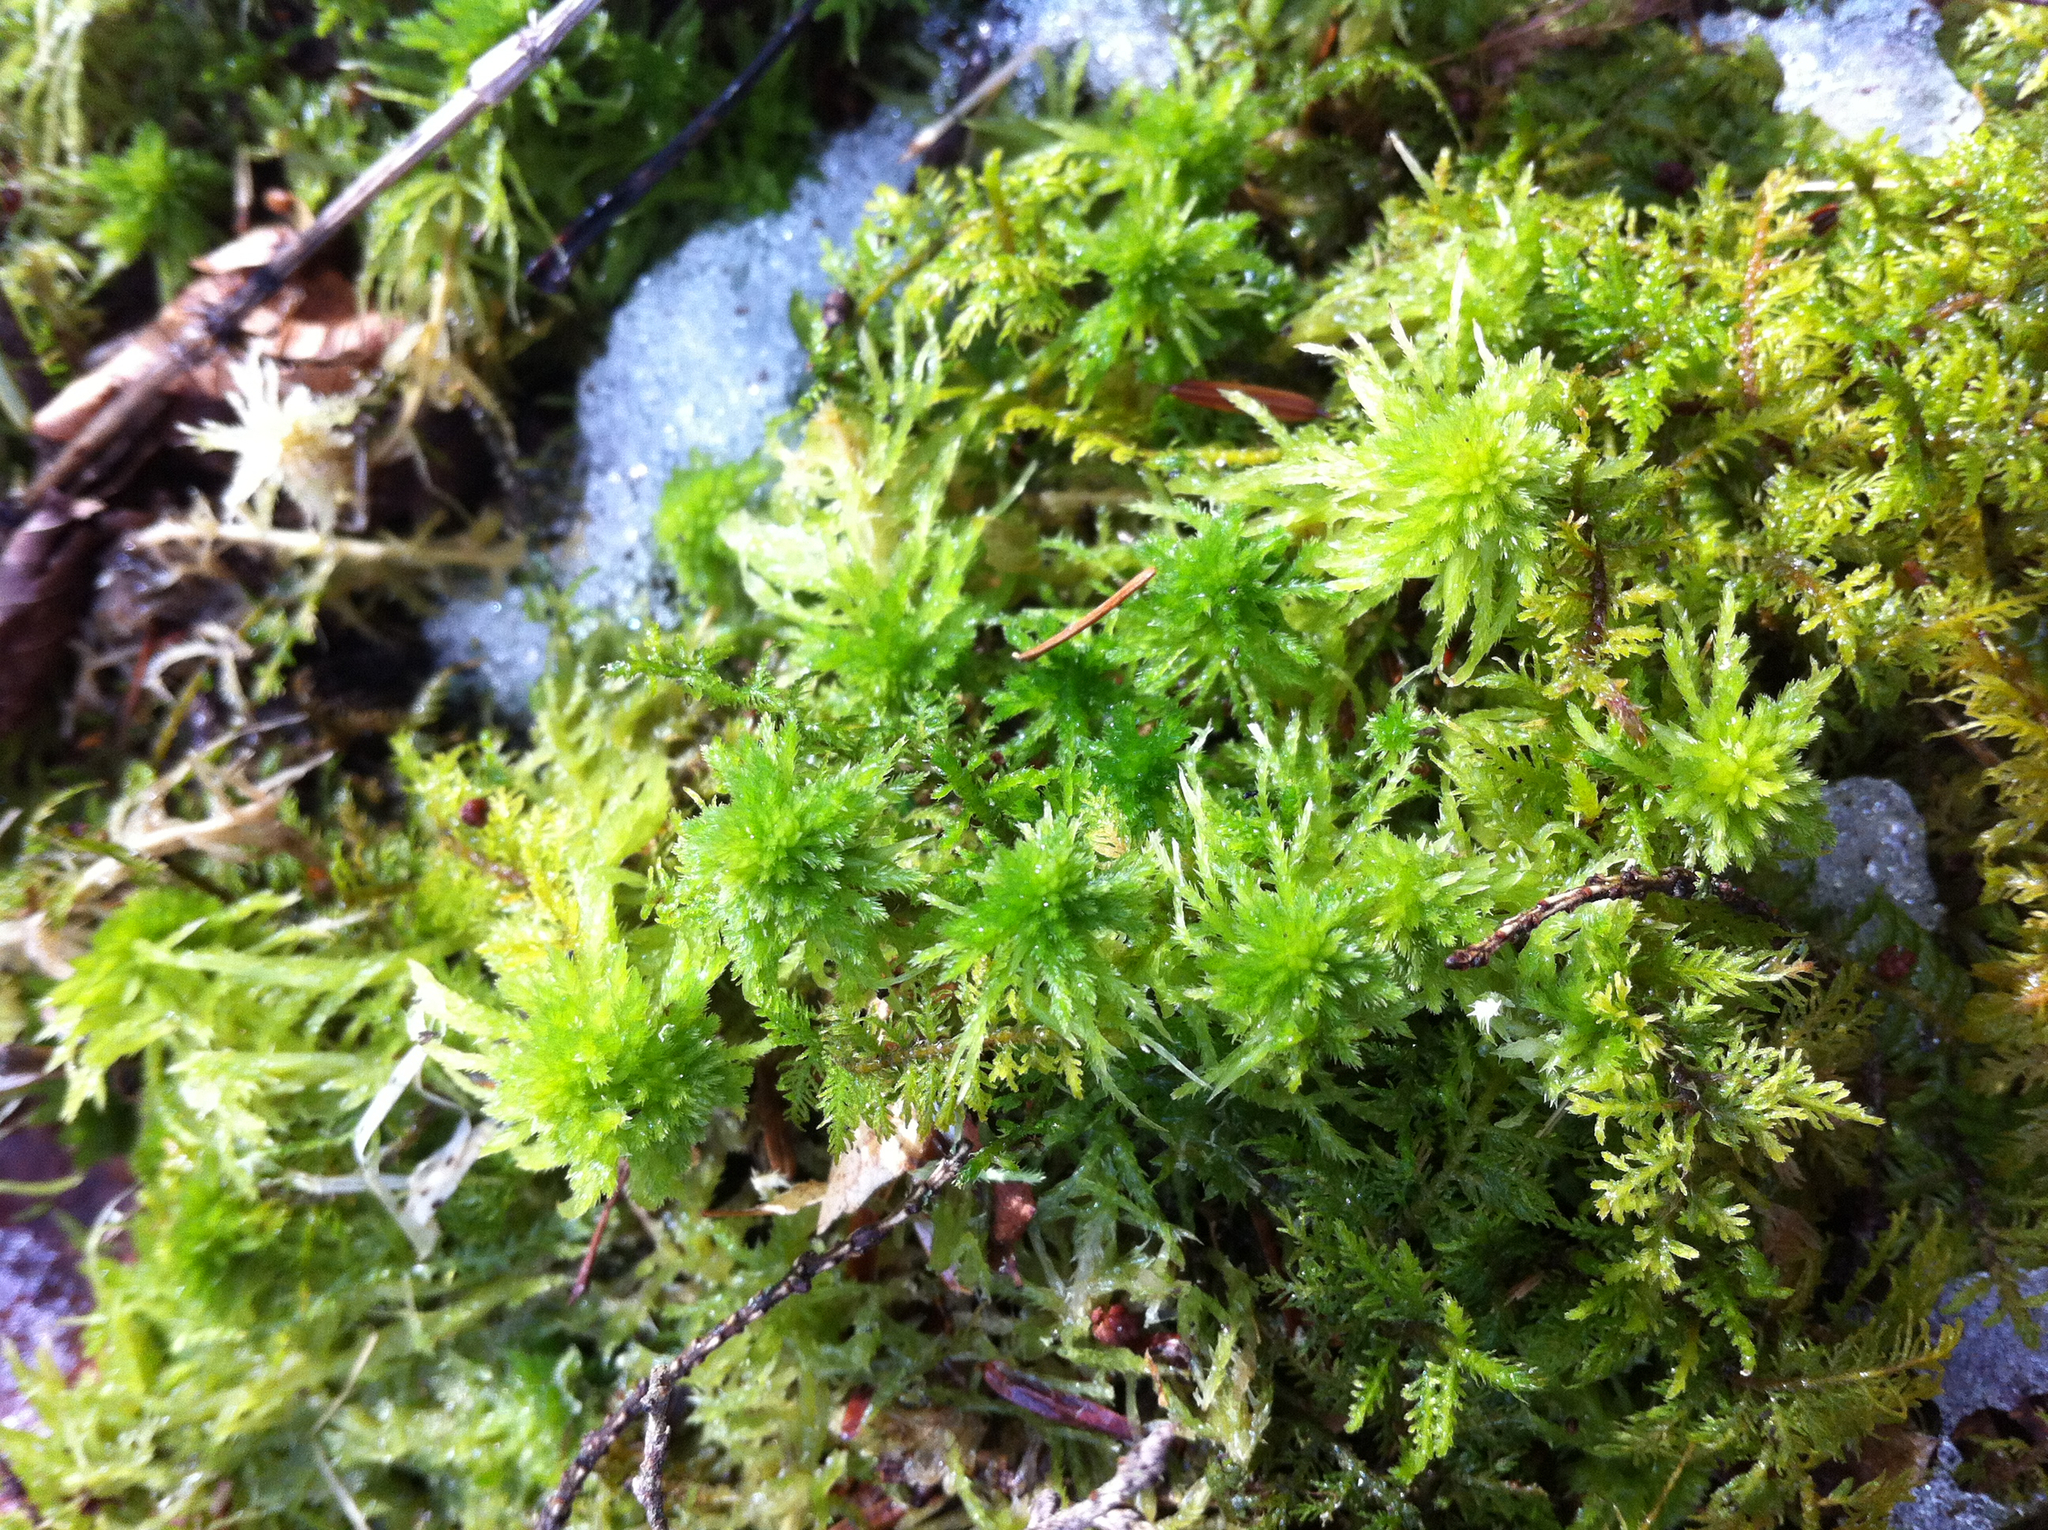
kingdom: Plantae
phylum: Bryophyta
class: Sphagnopsida
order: Sphagnales
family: Sphagnaceae
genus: Sphagnum
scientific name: Sphagnum squarrosum
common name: Shaggy peat moss
